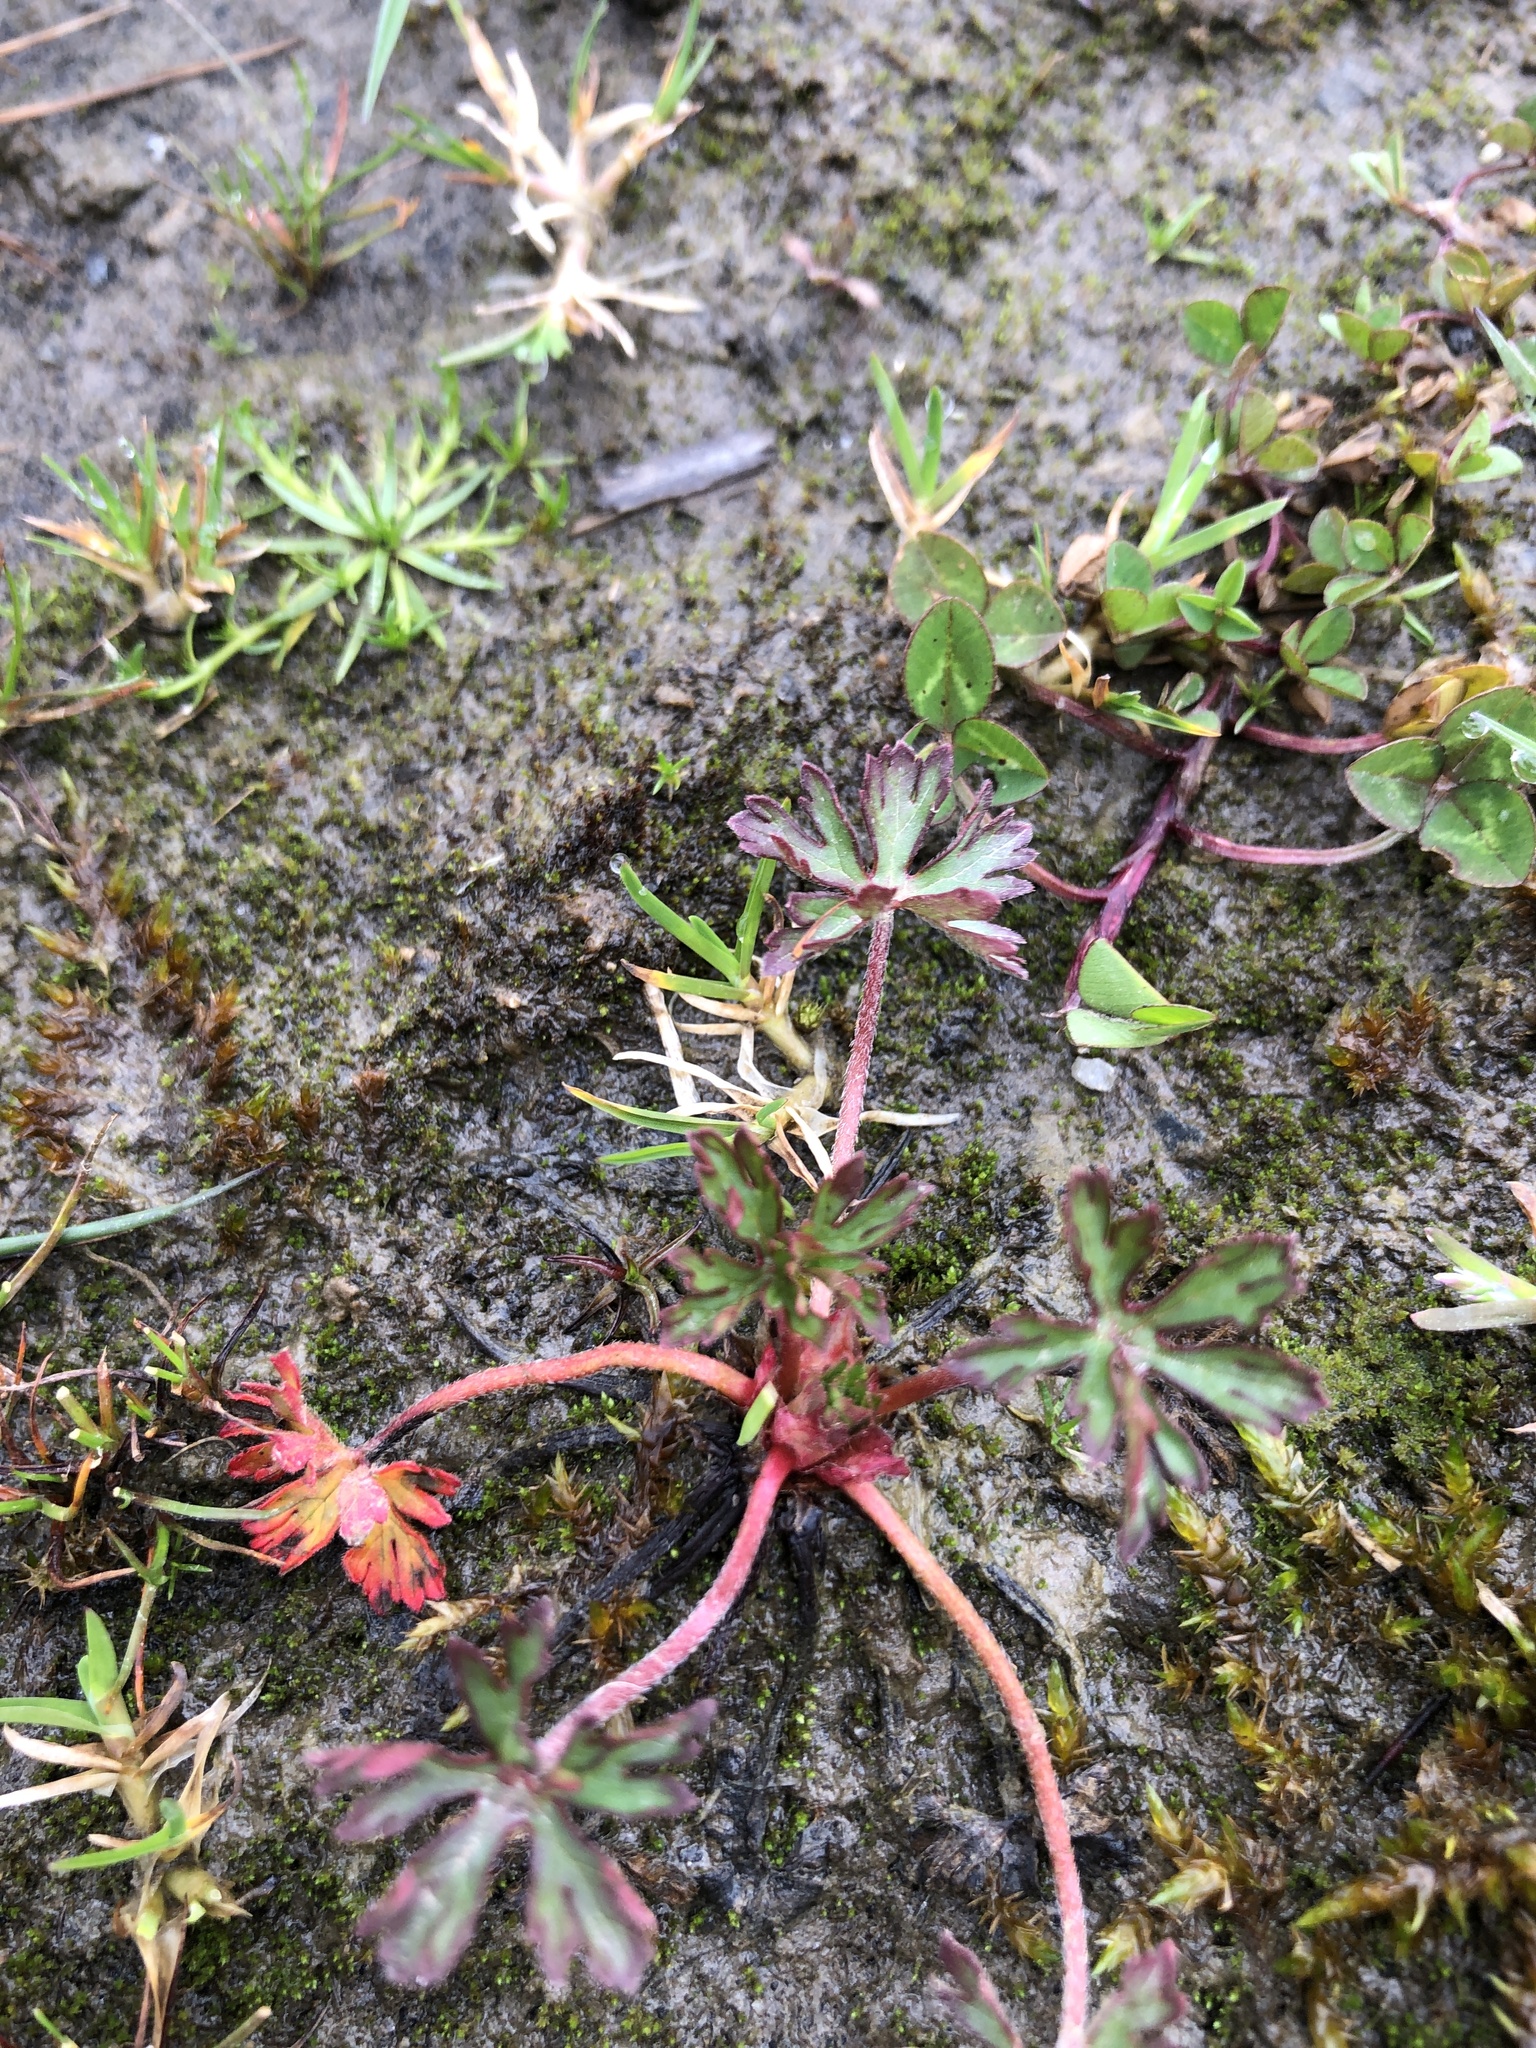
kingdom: Plantae
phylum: Tracheophyta
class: Magnoliopsida
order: Geraniales
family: Geraniaceae
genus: Geranium
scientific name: Geranium dissectum
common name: Cut-leaved crane's-bill
